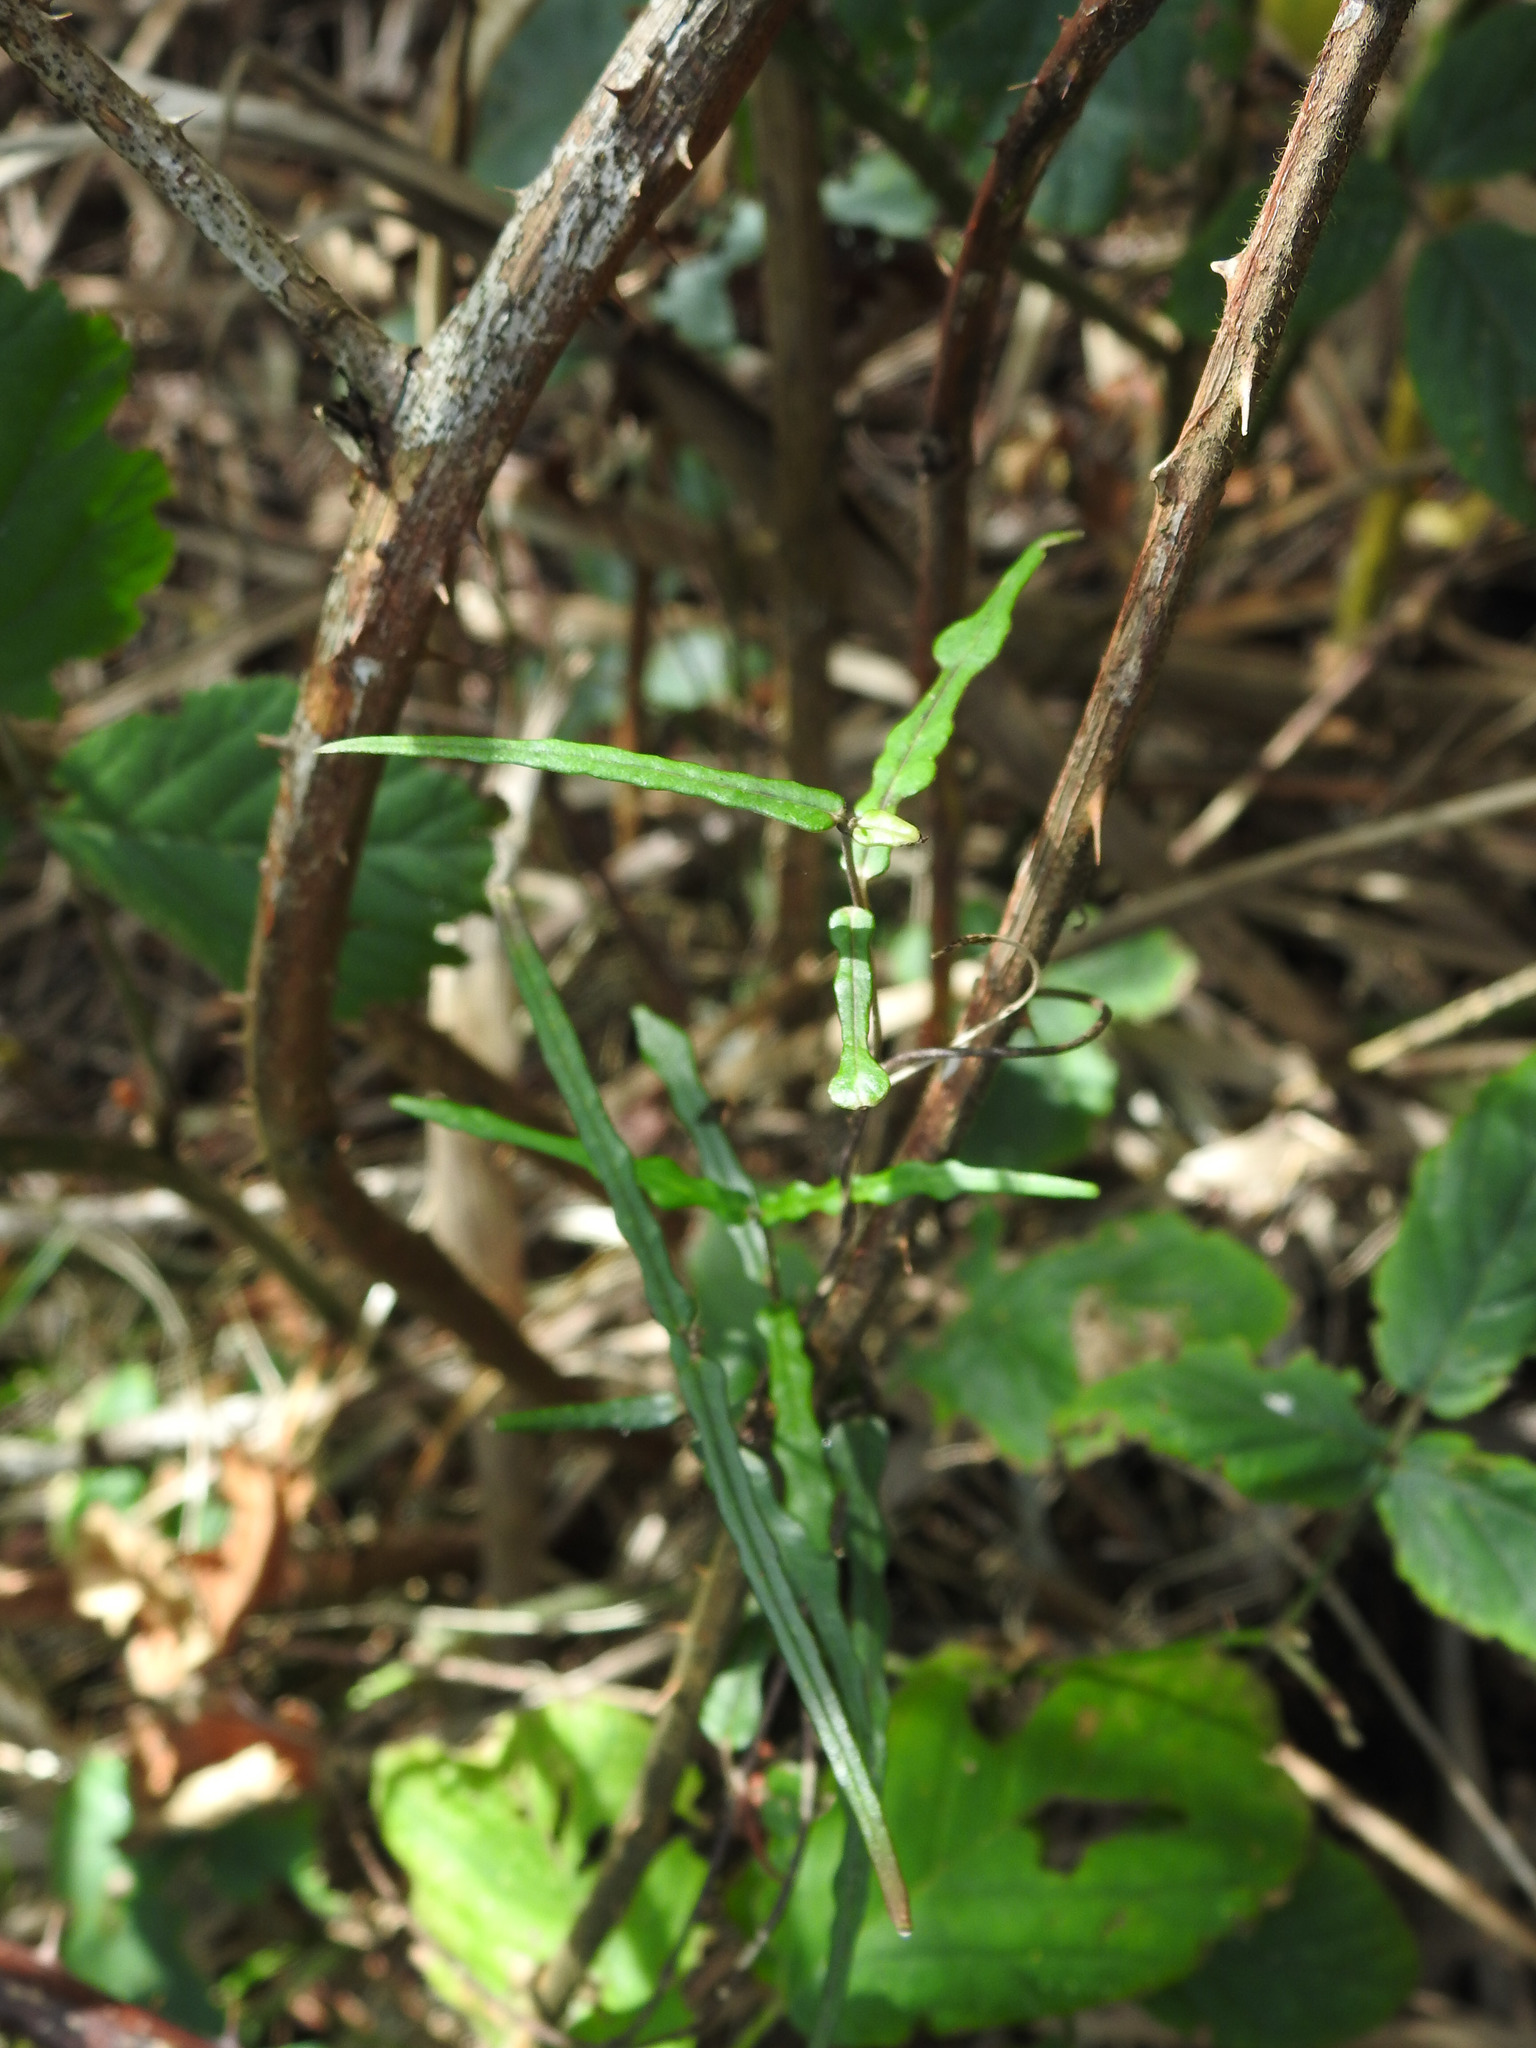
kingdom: Plantae
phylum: Tracheophyta
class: Magnoliopsida
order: Gentianales
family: Apocynaceae
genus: Parsonsia
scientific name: Parsonsia heterophylla
